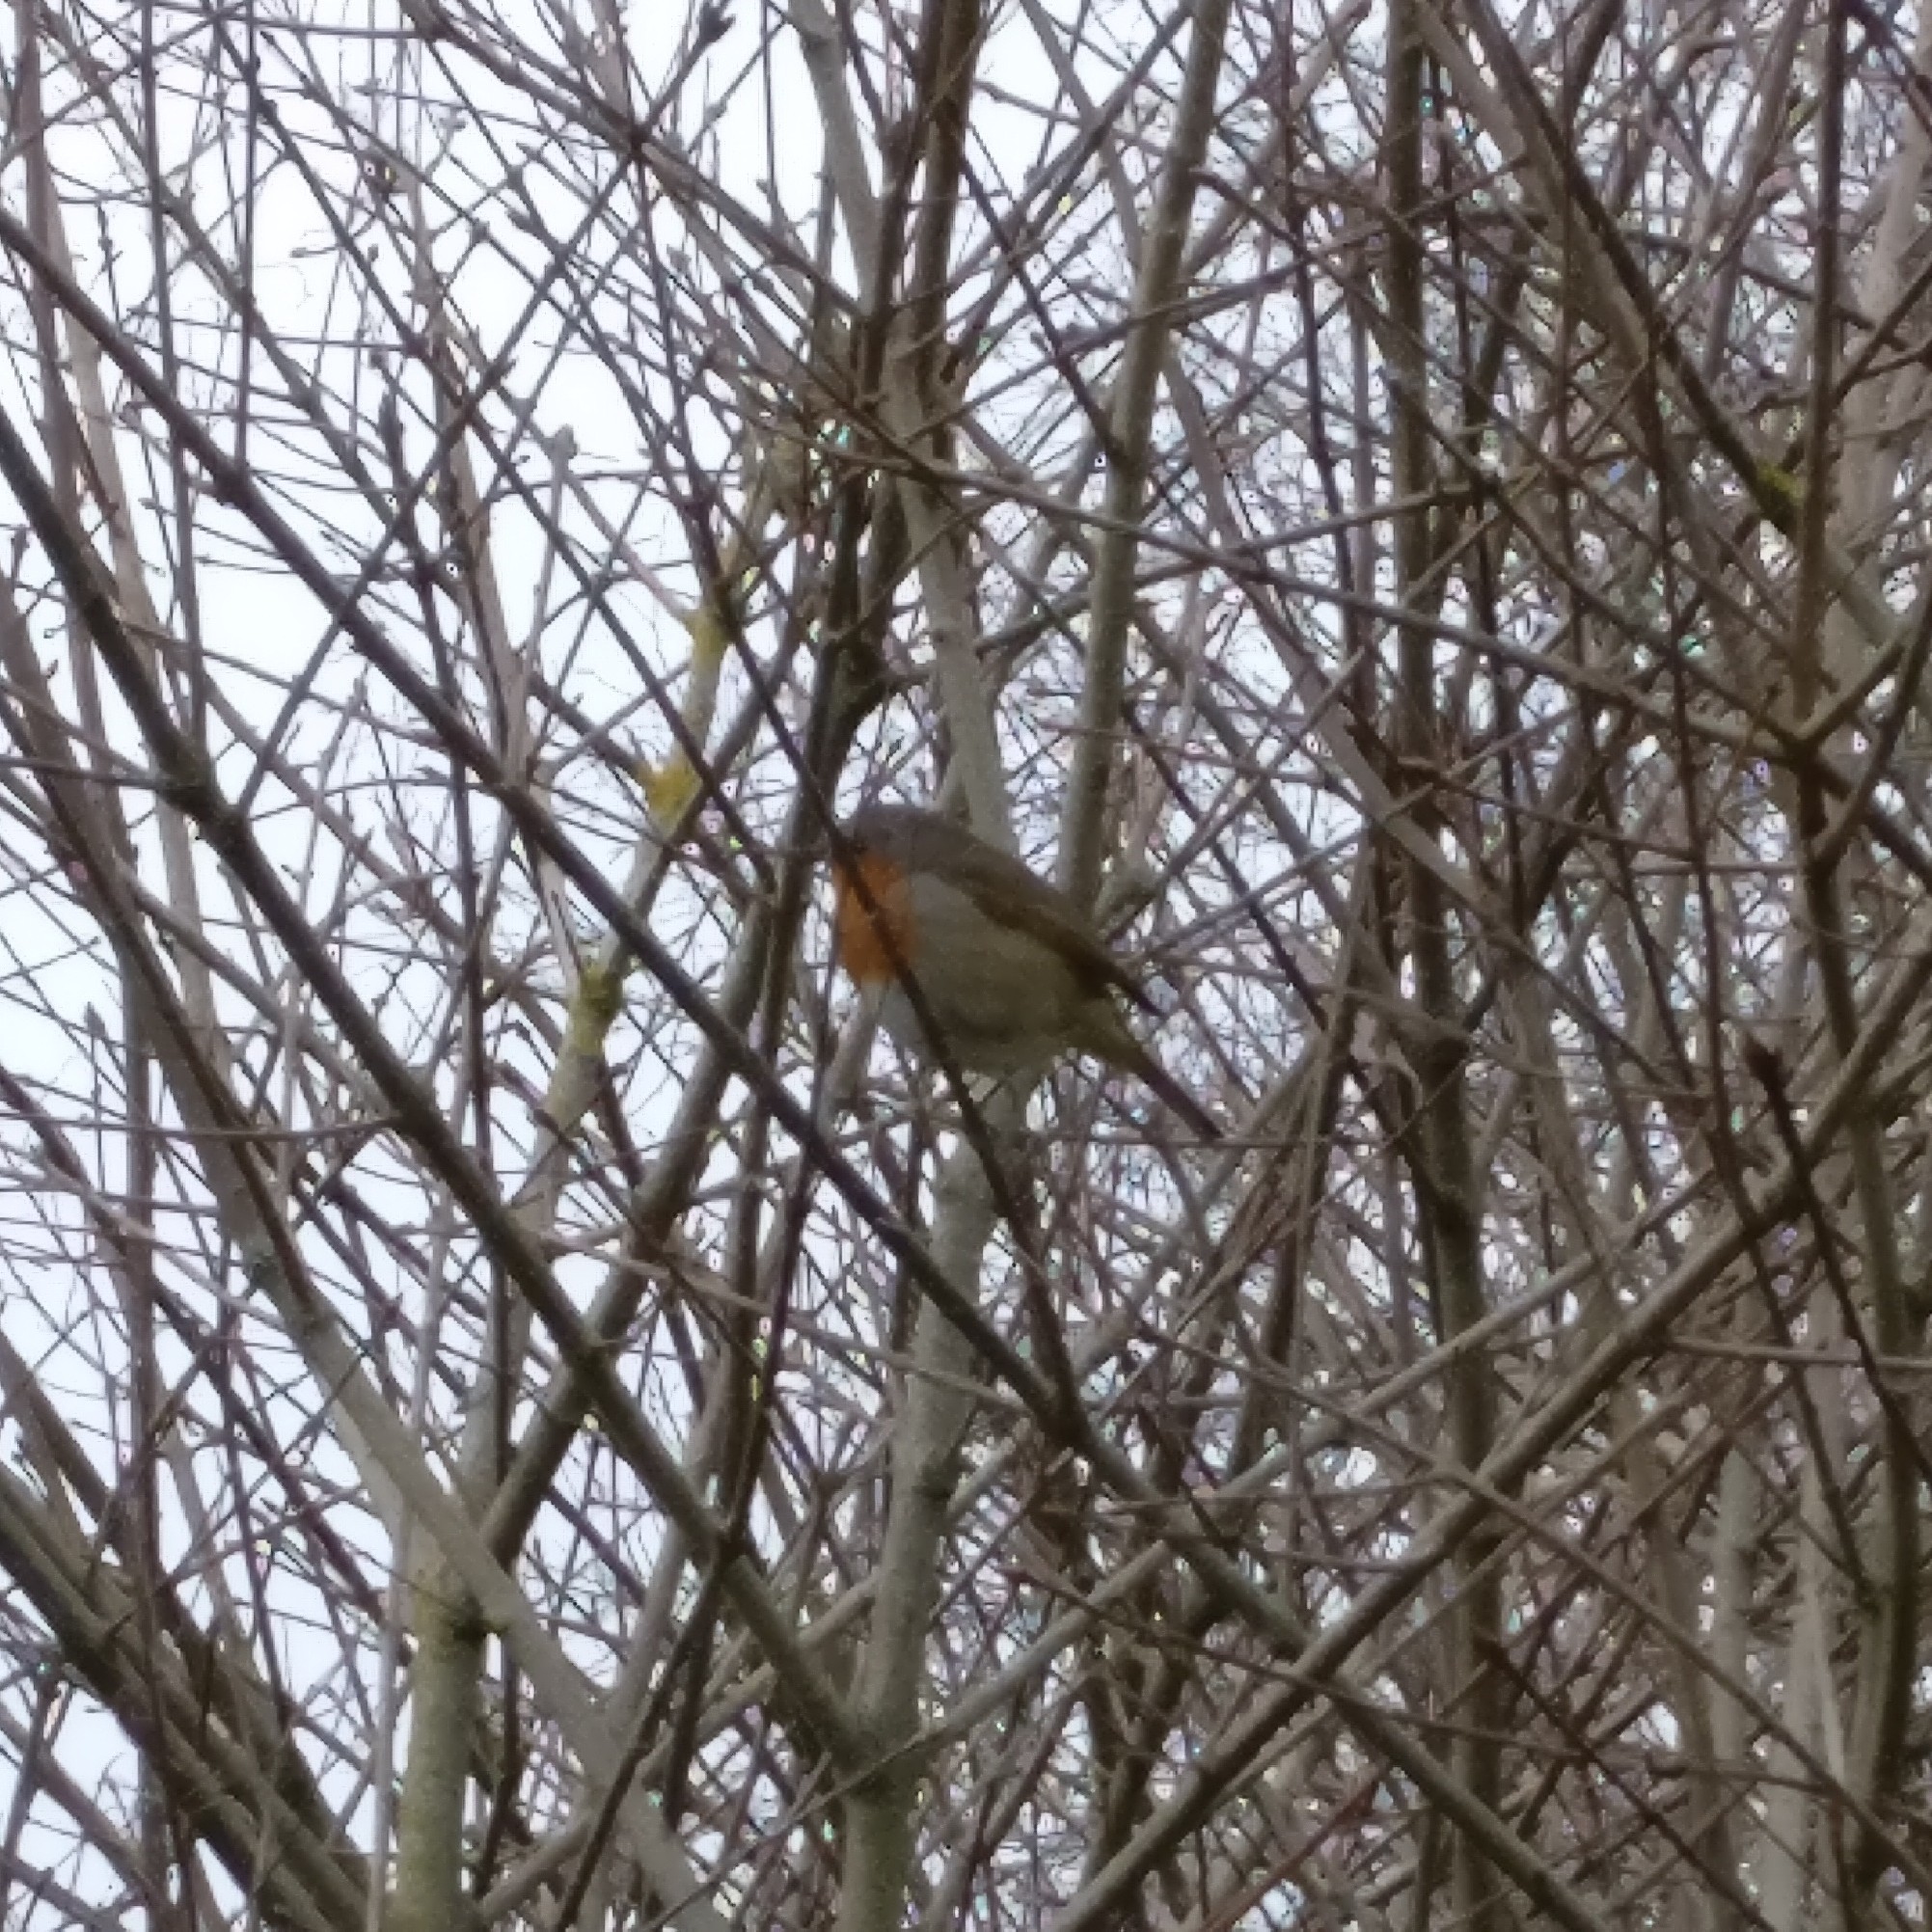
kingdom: Animalia
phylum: Chordata
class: Aves
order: Passeriformes
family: Muscicapidae
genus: Erithacus
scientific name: Erithacus rubecula
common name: European robin
